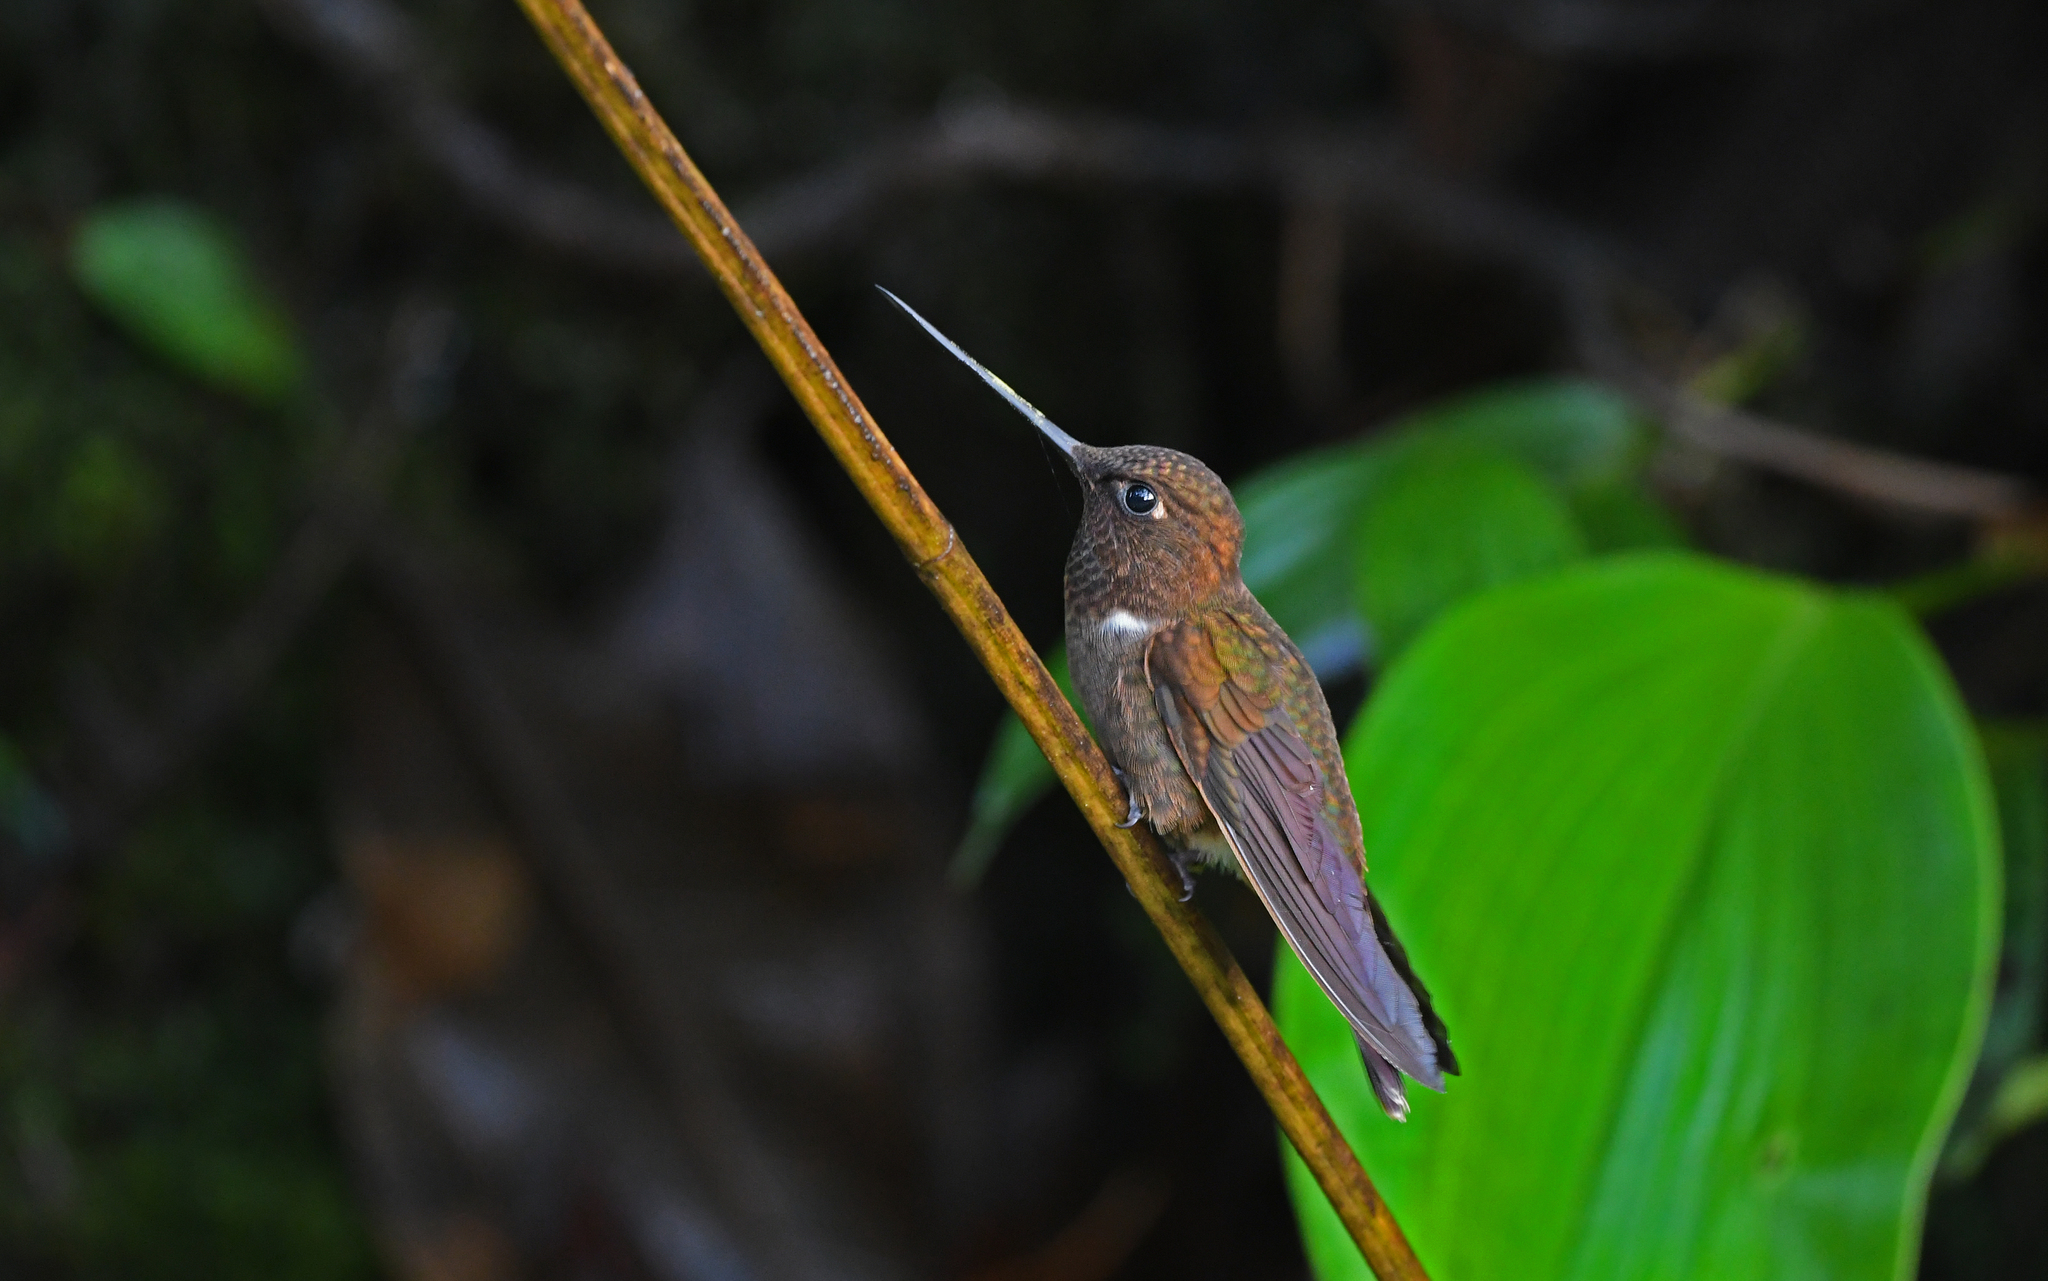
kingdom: Animalia
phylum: Chordata
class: Aves
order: Apodiformes
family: Trochilidae
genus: Coeligena
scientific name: Coeligena wilsoni
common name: Brown inca
